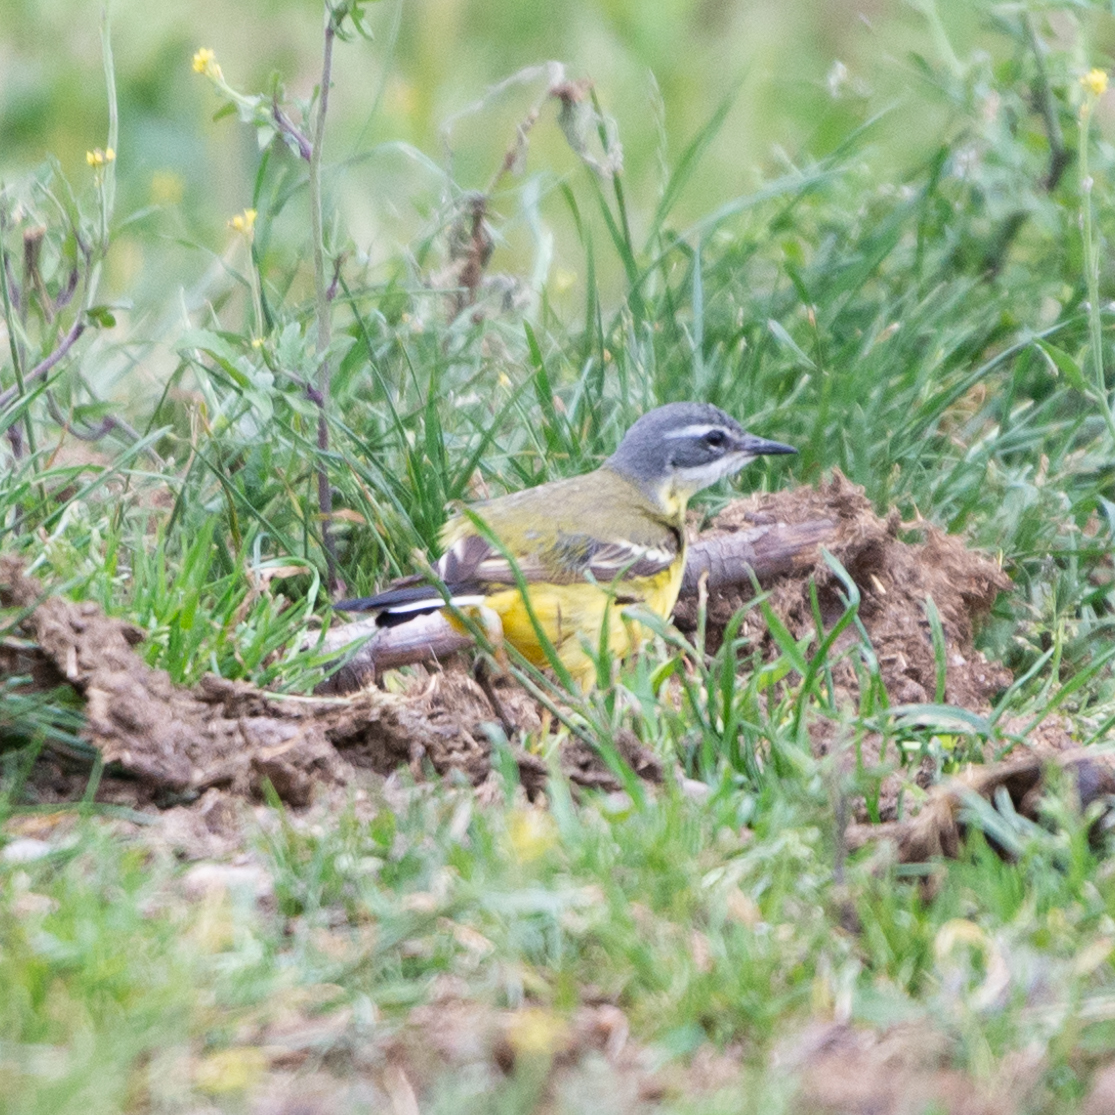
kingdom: Animalia
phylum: Chordata
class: Aves
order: Passeriformes
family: Motacillidae
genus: Motacilla
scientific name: Motacilla flava
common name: Western yellow wagtail
